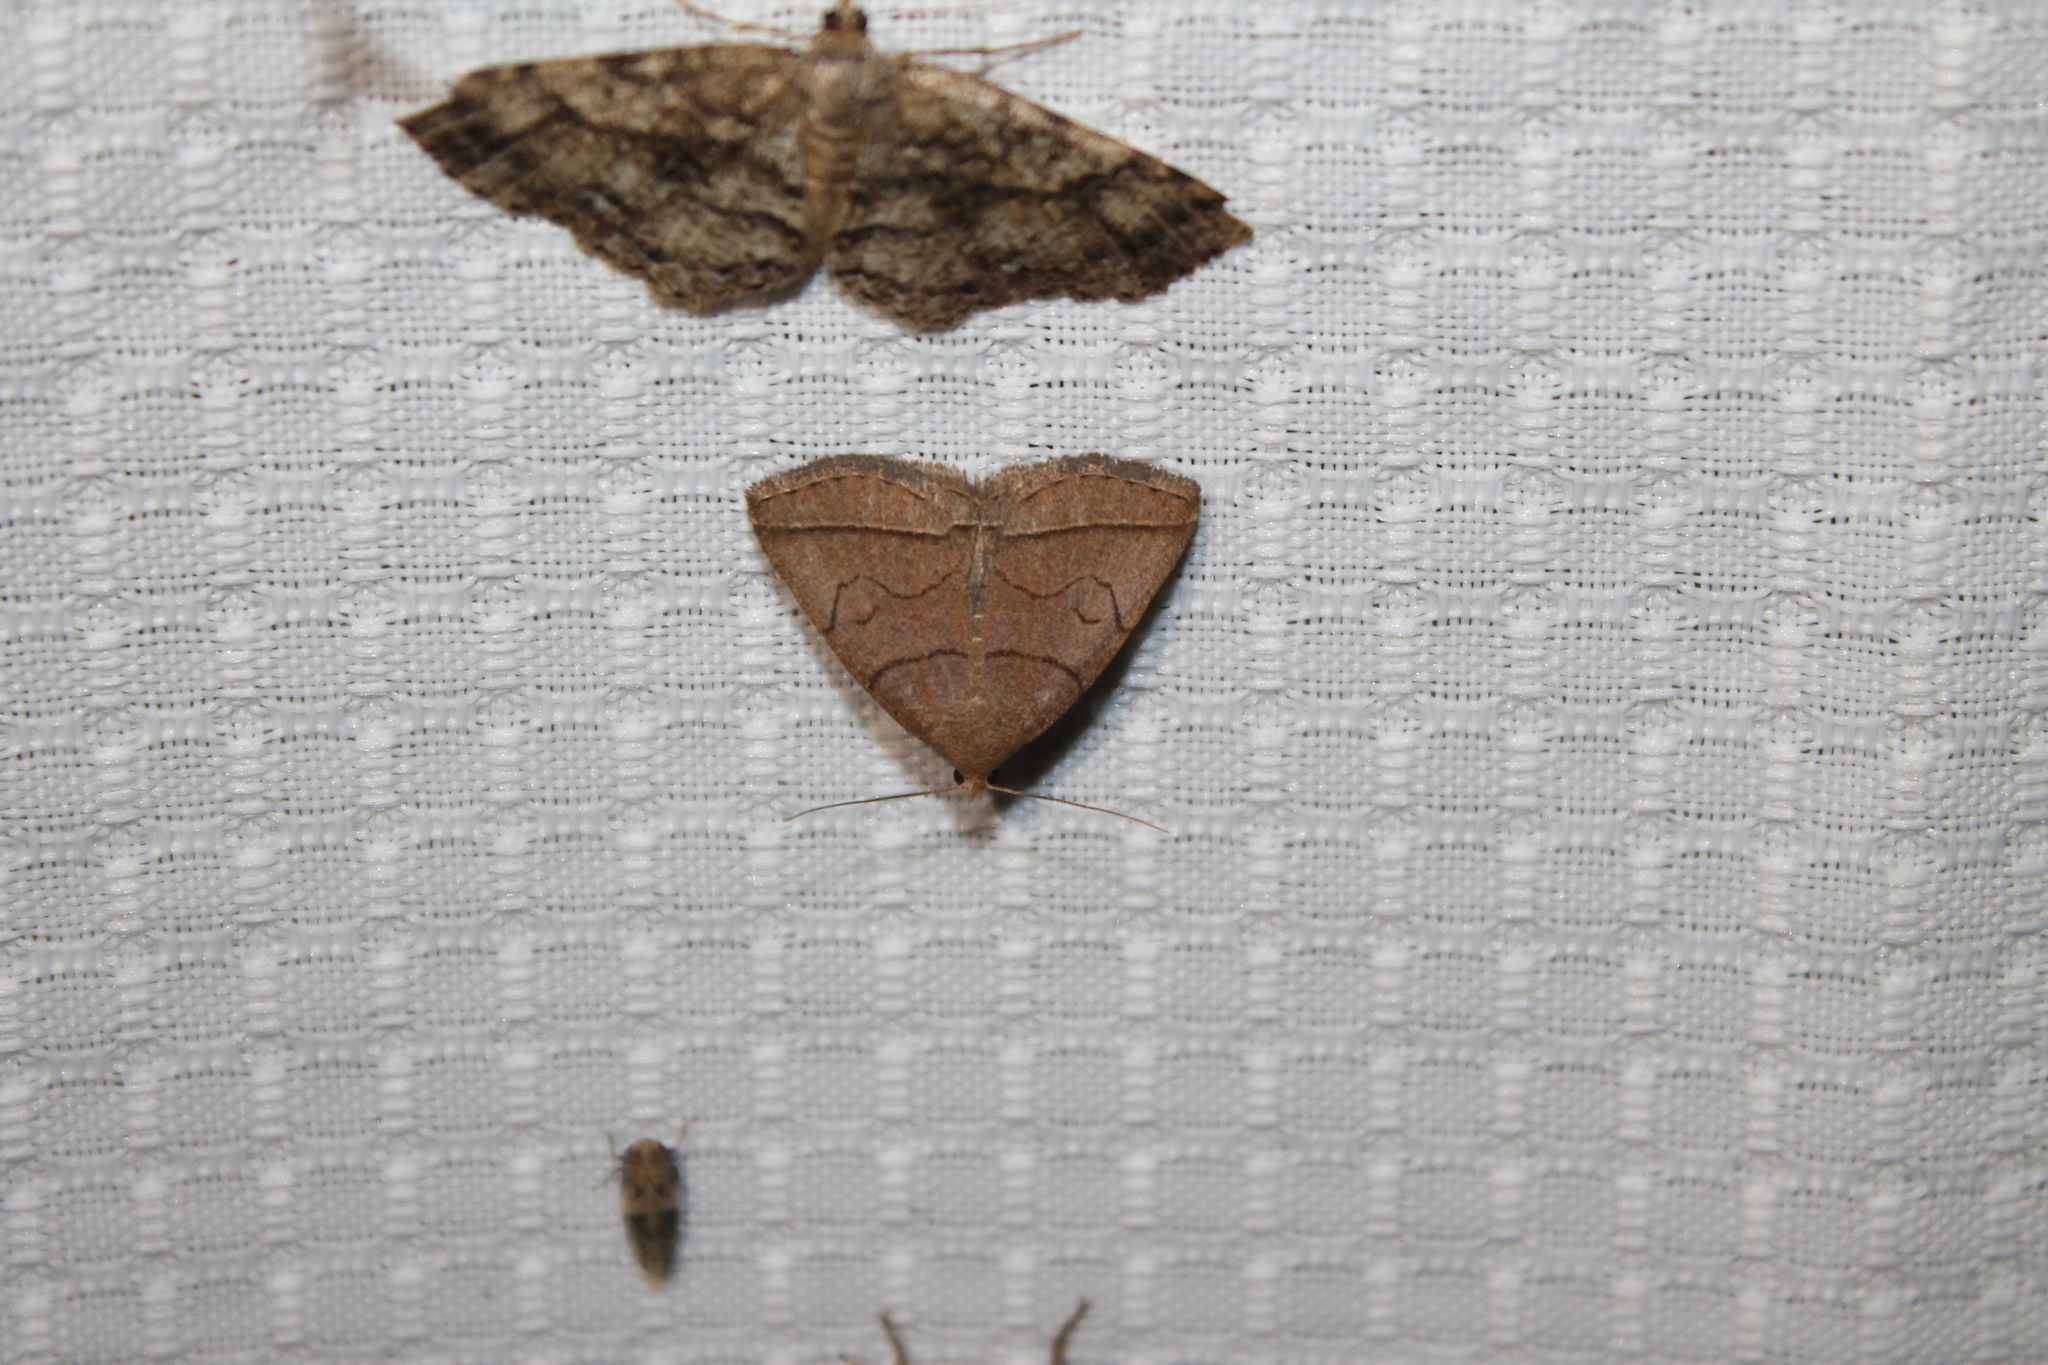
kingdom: Animalia
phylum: Arthropoda
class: Insecta
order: Lepidoptera
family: Erebidae
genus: Zanclognatha
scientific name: Zanclognatha cruralis
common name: Early fan-foot
